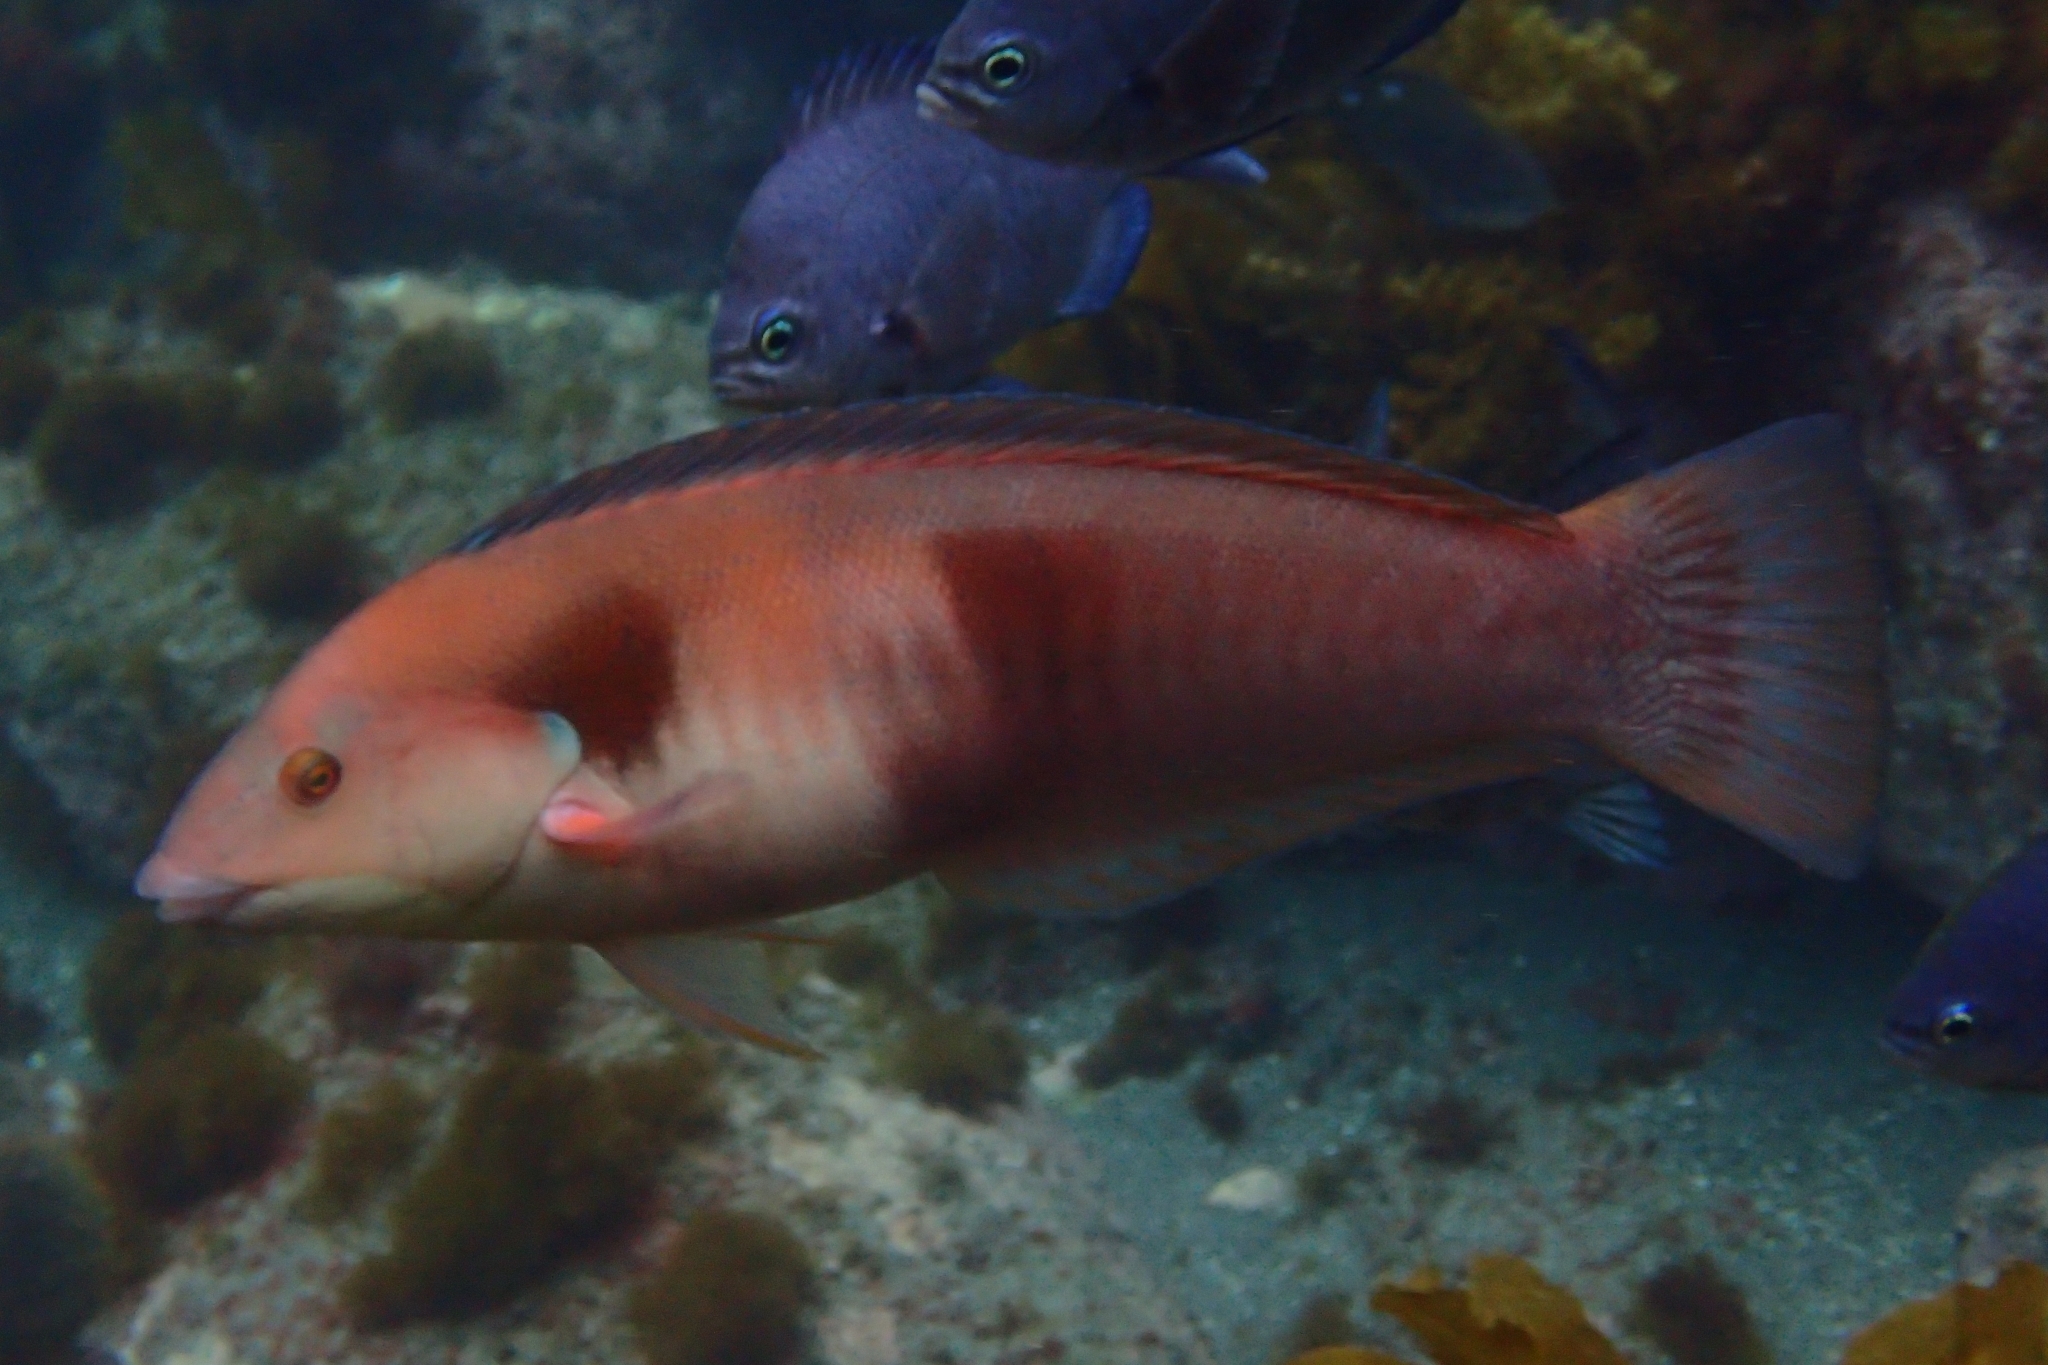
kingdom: Animalia
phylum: Chordata
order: Perciformes
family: Labridae
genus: Coris
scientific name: Coris sandeyeri
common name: Sandager's wrasse
